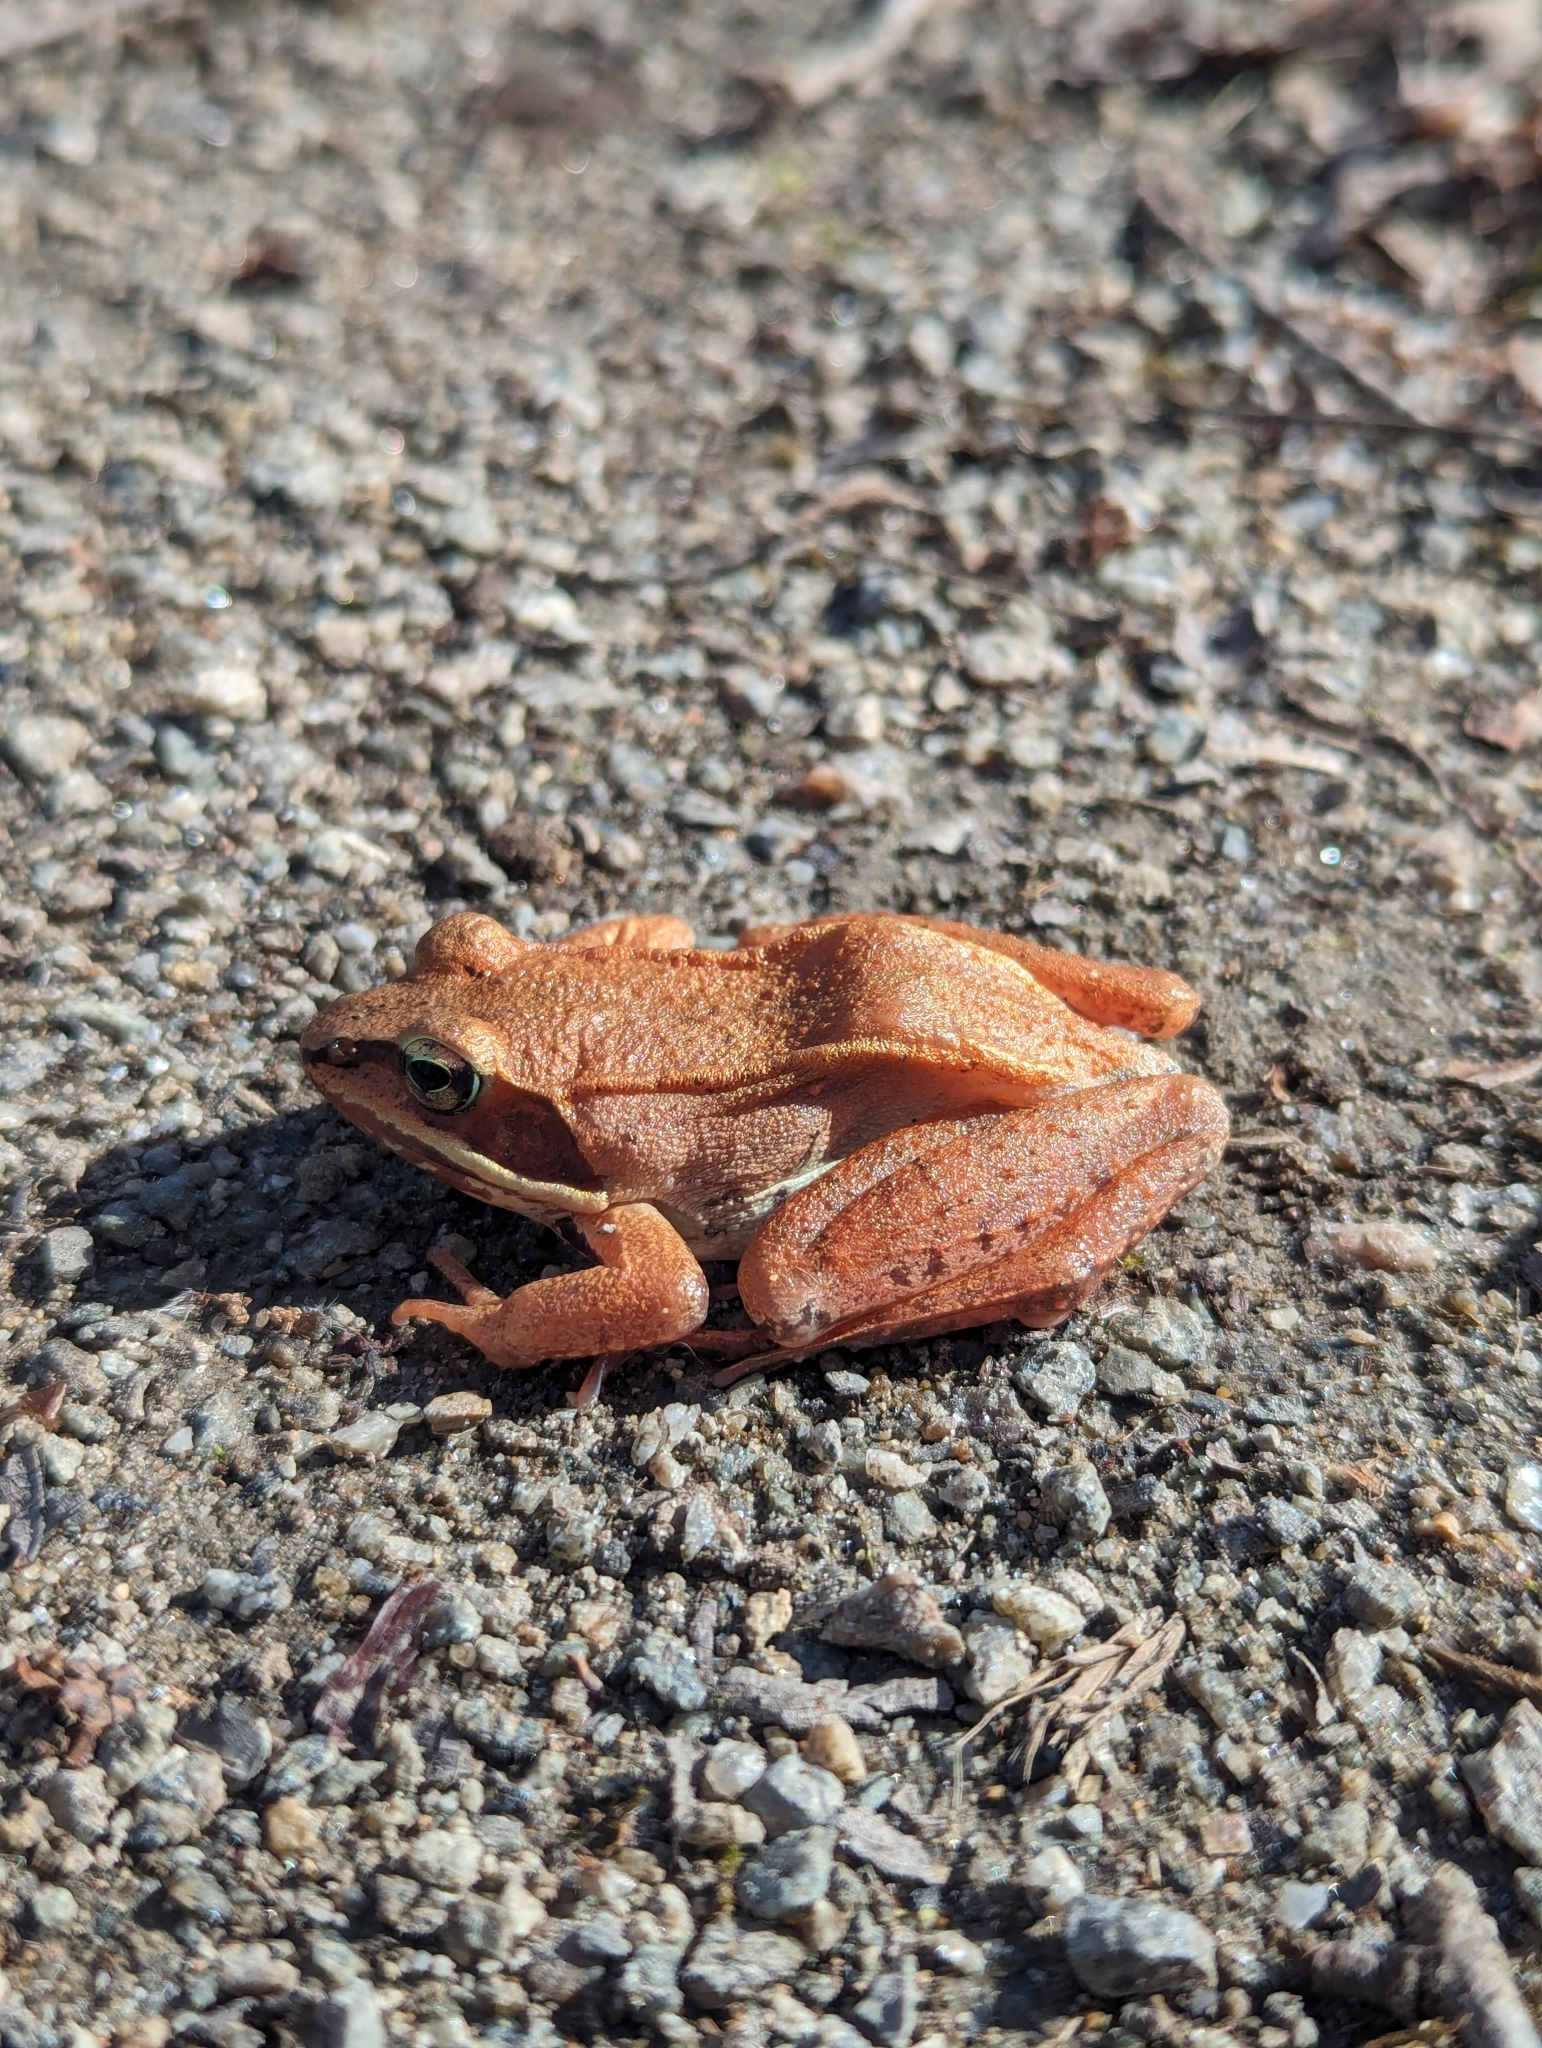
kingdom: Animalia
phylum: Chordata
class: Amphibia
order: Anura
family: Ranidae
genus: Lithobates
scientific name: Lithobates sylvaticus
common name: Wood frog
